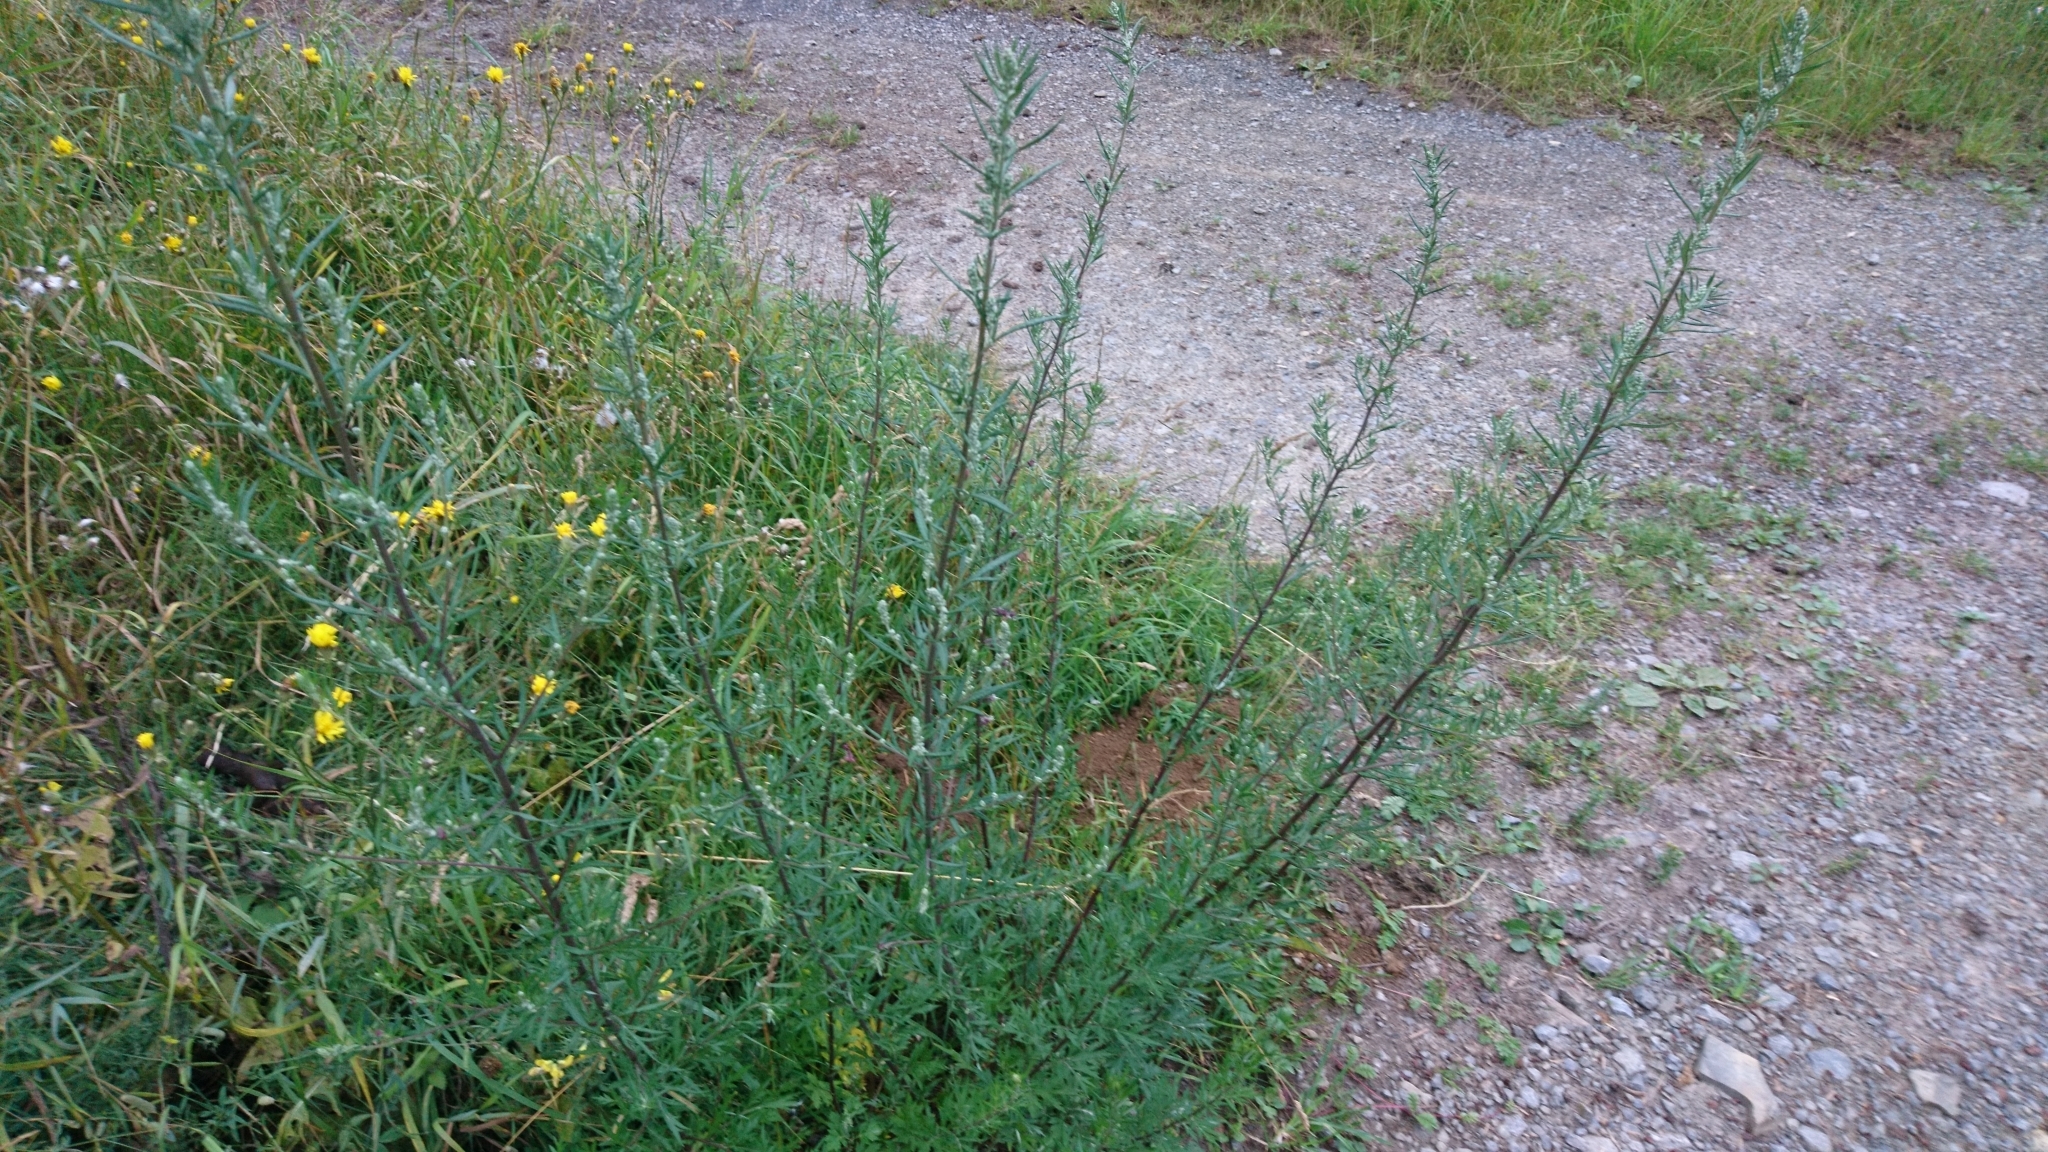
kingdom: Plantae
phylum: Tracheophyta
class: Magnoliopsida
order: Asterales
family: Asteraceae
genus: Artemisia
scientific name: Artemisia vulgaris
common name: Mugwort
